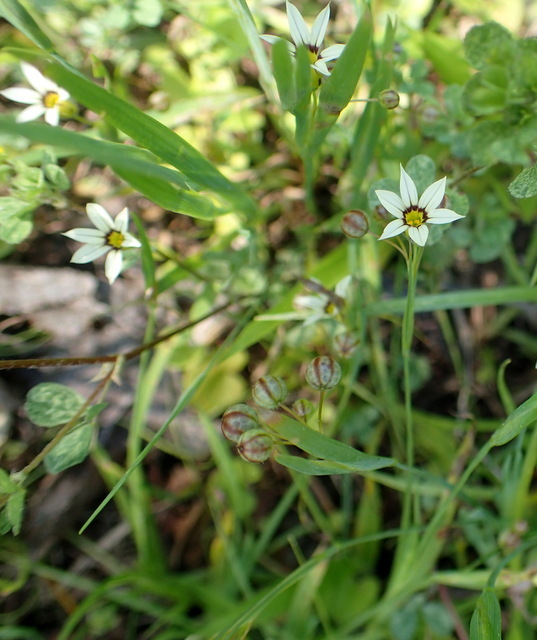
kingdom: Plantae
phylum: Tracheophyta
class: Liliopsida
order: Asparagales
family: Iridaceae
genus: Sisyrinchium
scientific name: Sisyrinchium micranthum
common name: Bermuda pigroot
